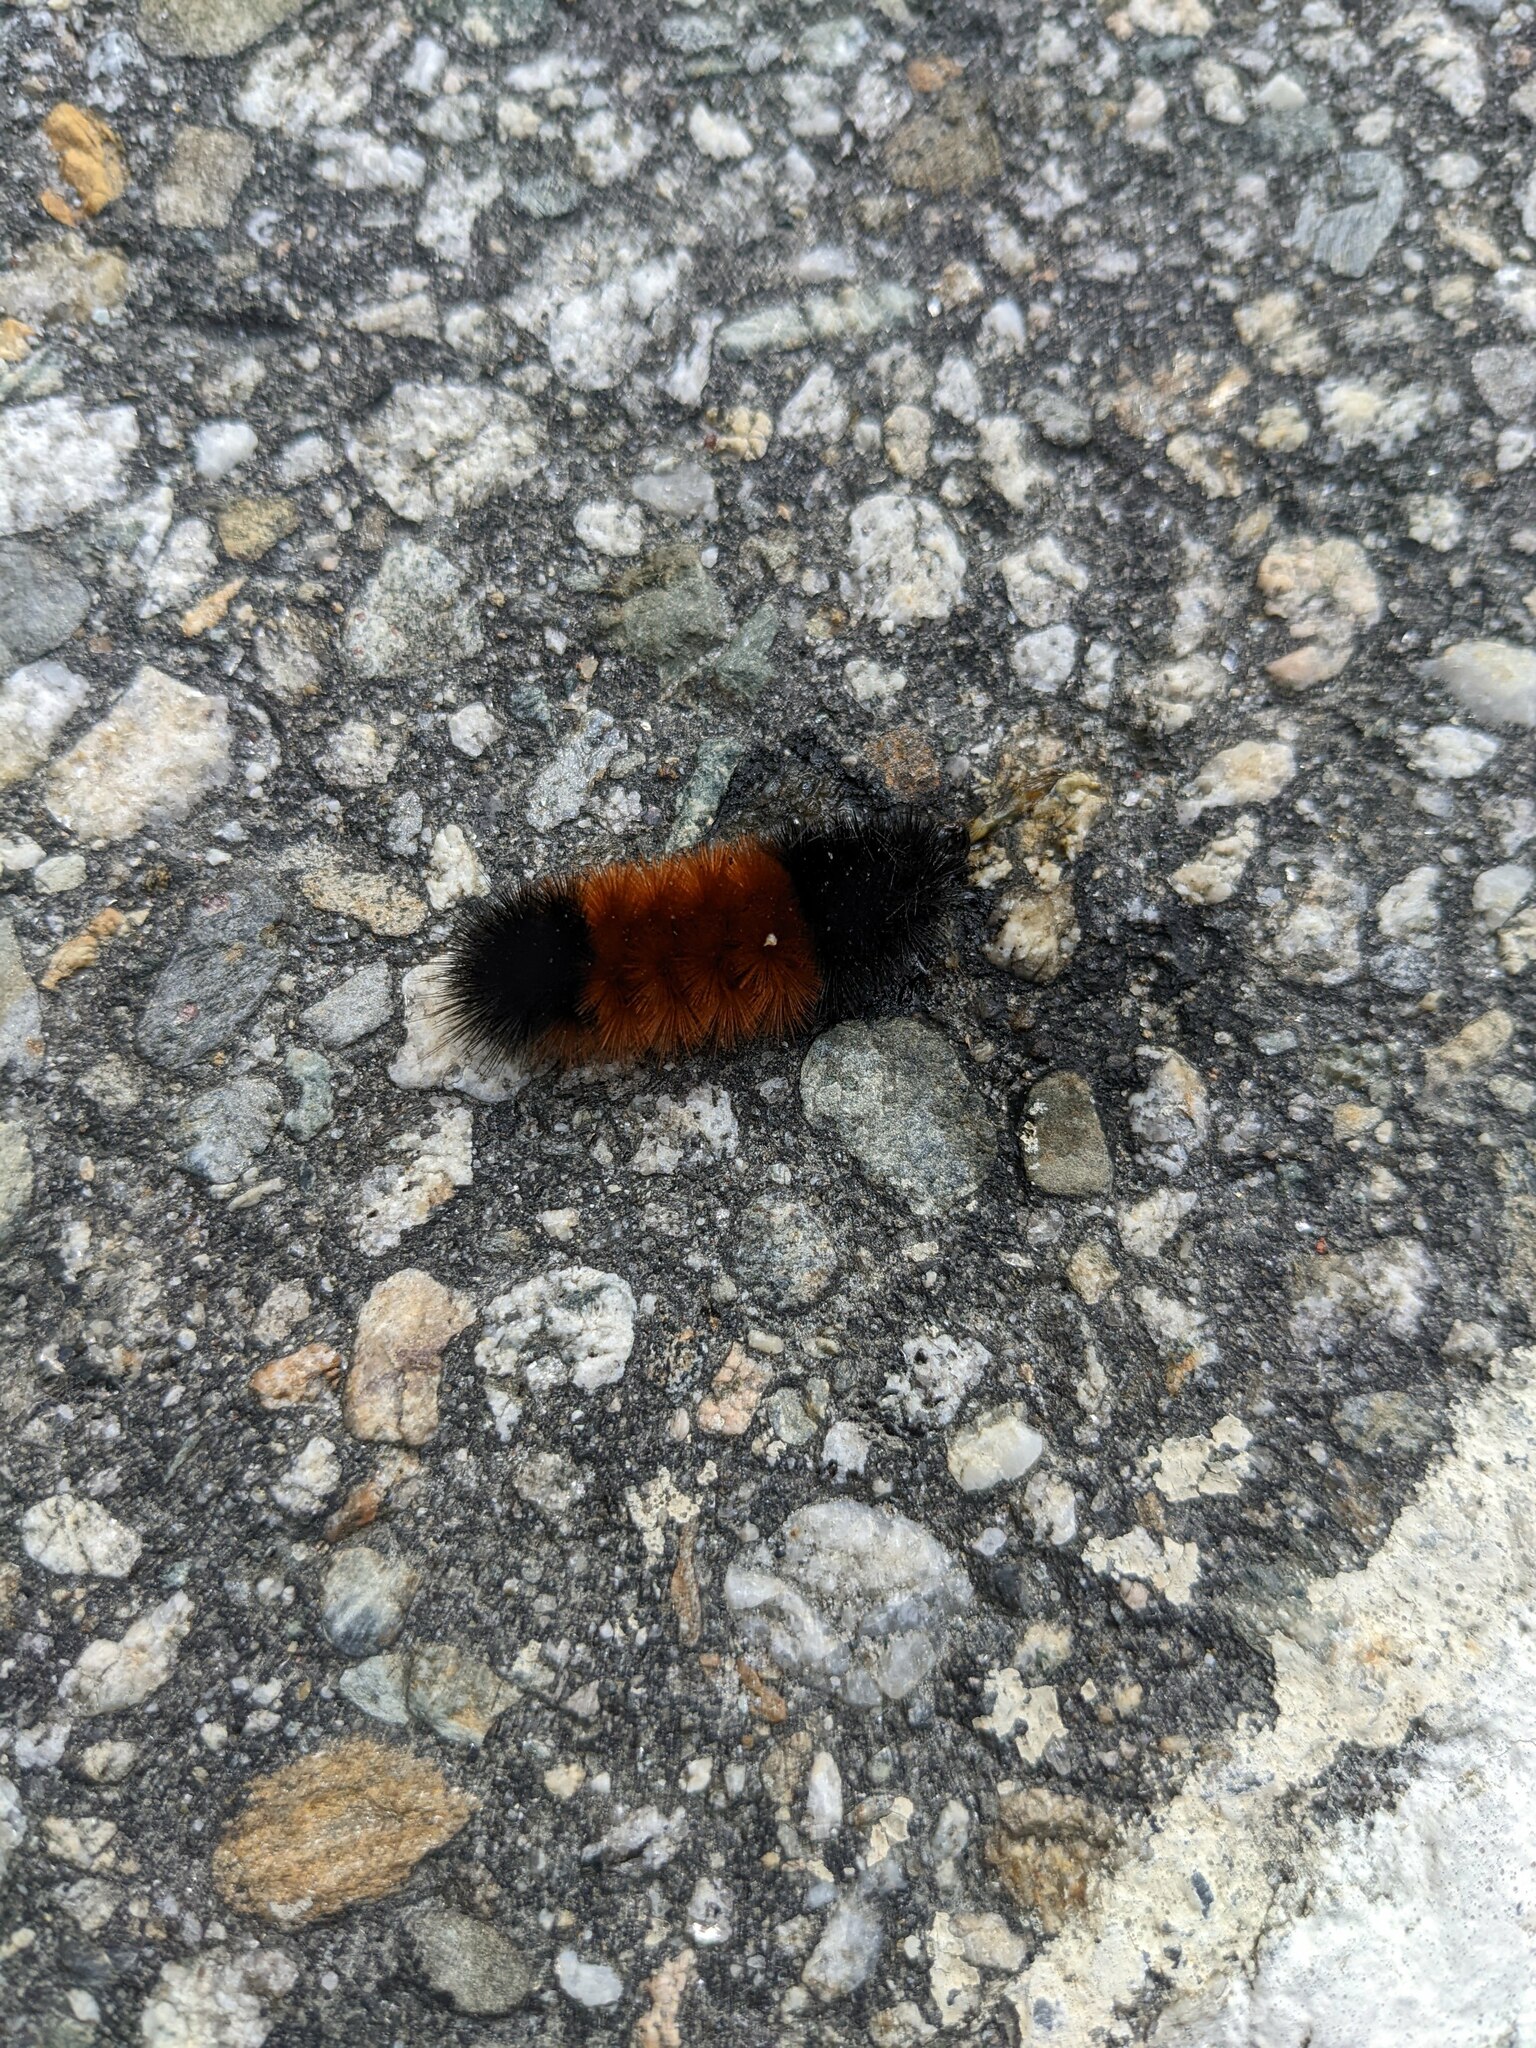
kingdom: Animalia
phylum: Arthropoda
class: Insecta
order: Lepidoptera
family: Erebidae
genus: Pyrrharctia
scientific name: Pyrrharctia isabella
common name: Isabella tiger moth
